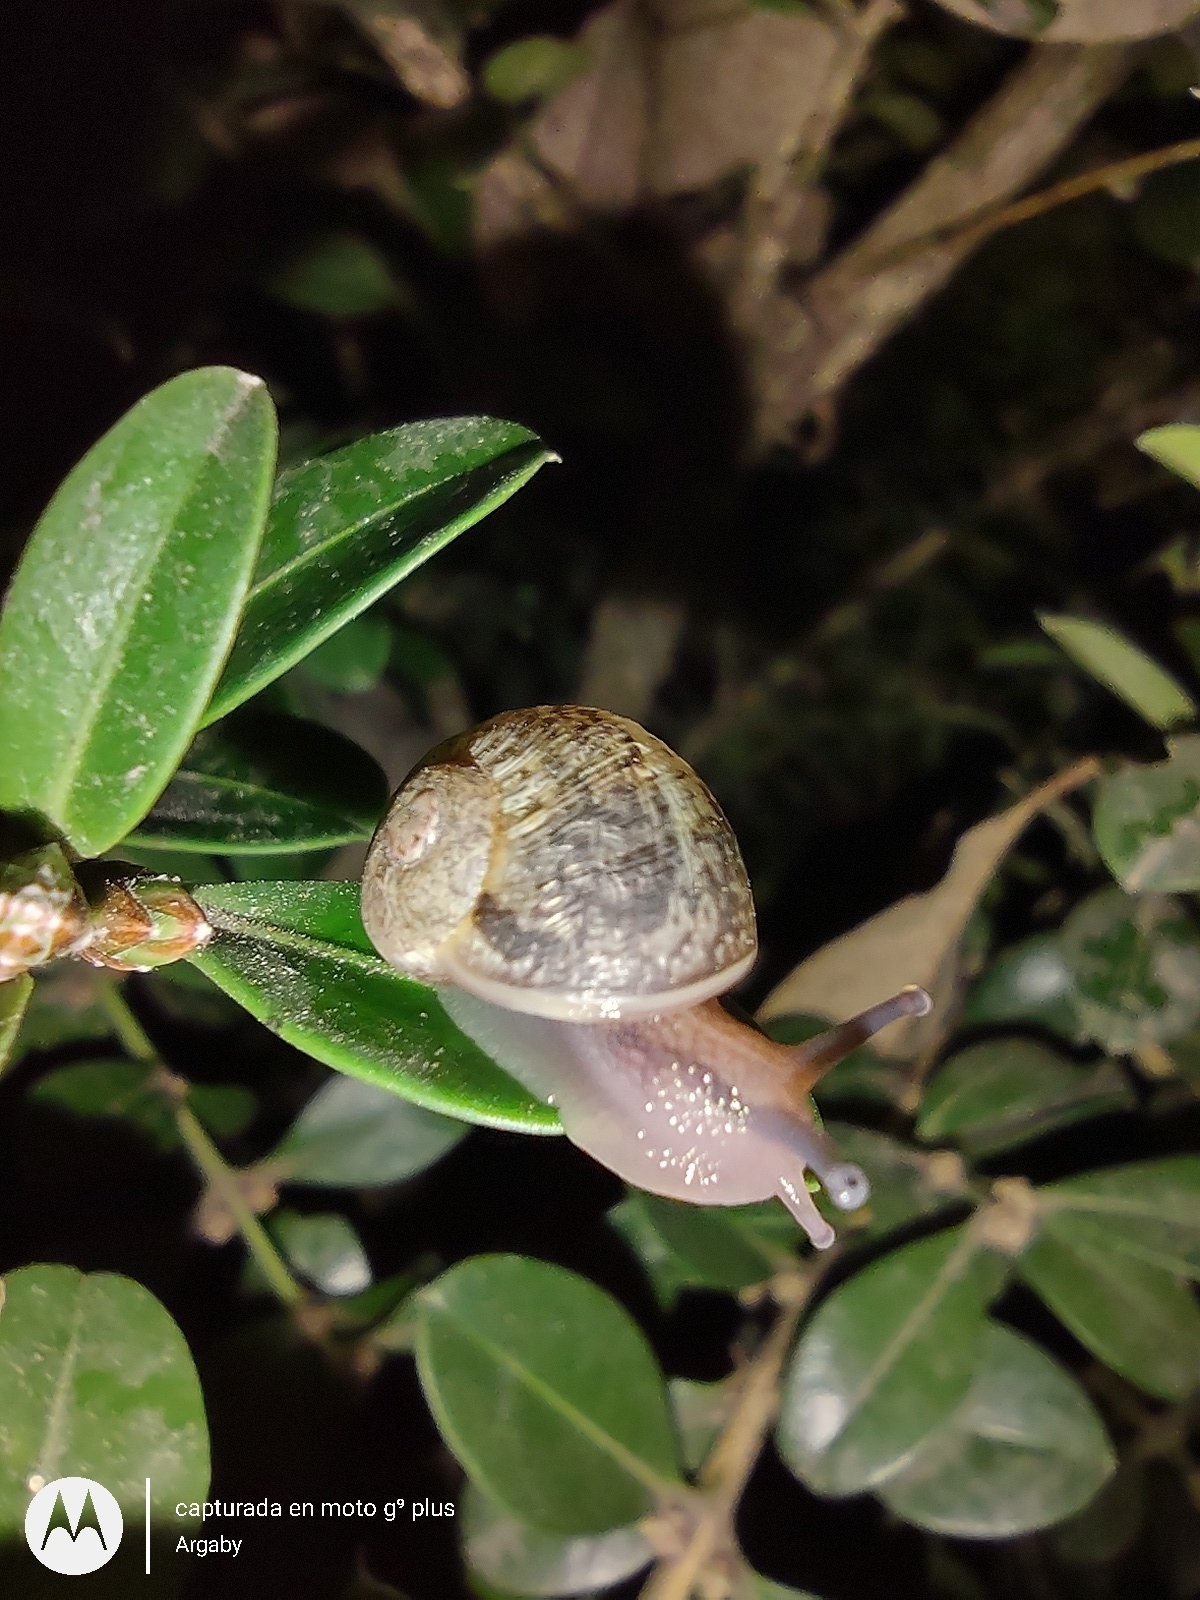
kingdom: Animalia
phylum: Mollusca
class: Gastropoda
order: Stylommatophora
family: Helicidae
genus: Cornu
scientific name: Cornu aspersum
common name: Brown garden snail
